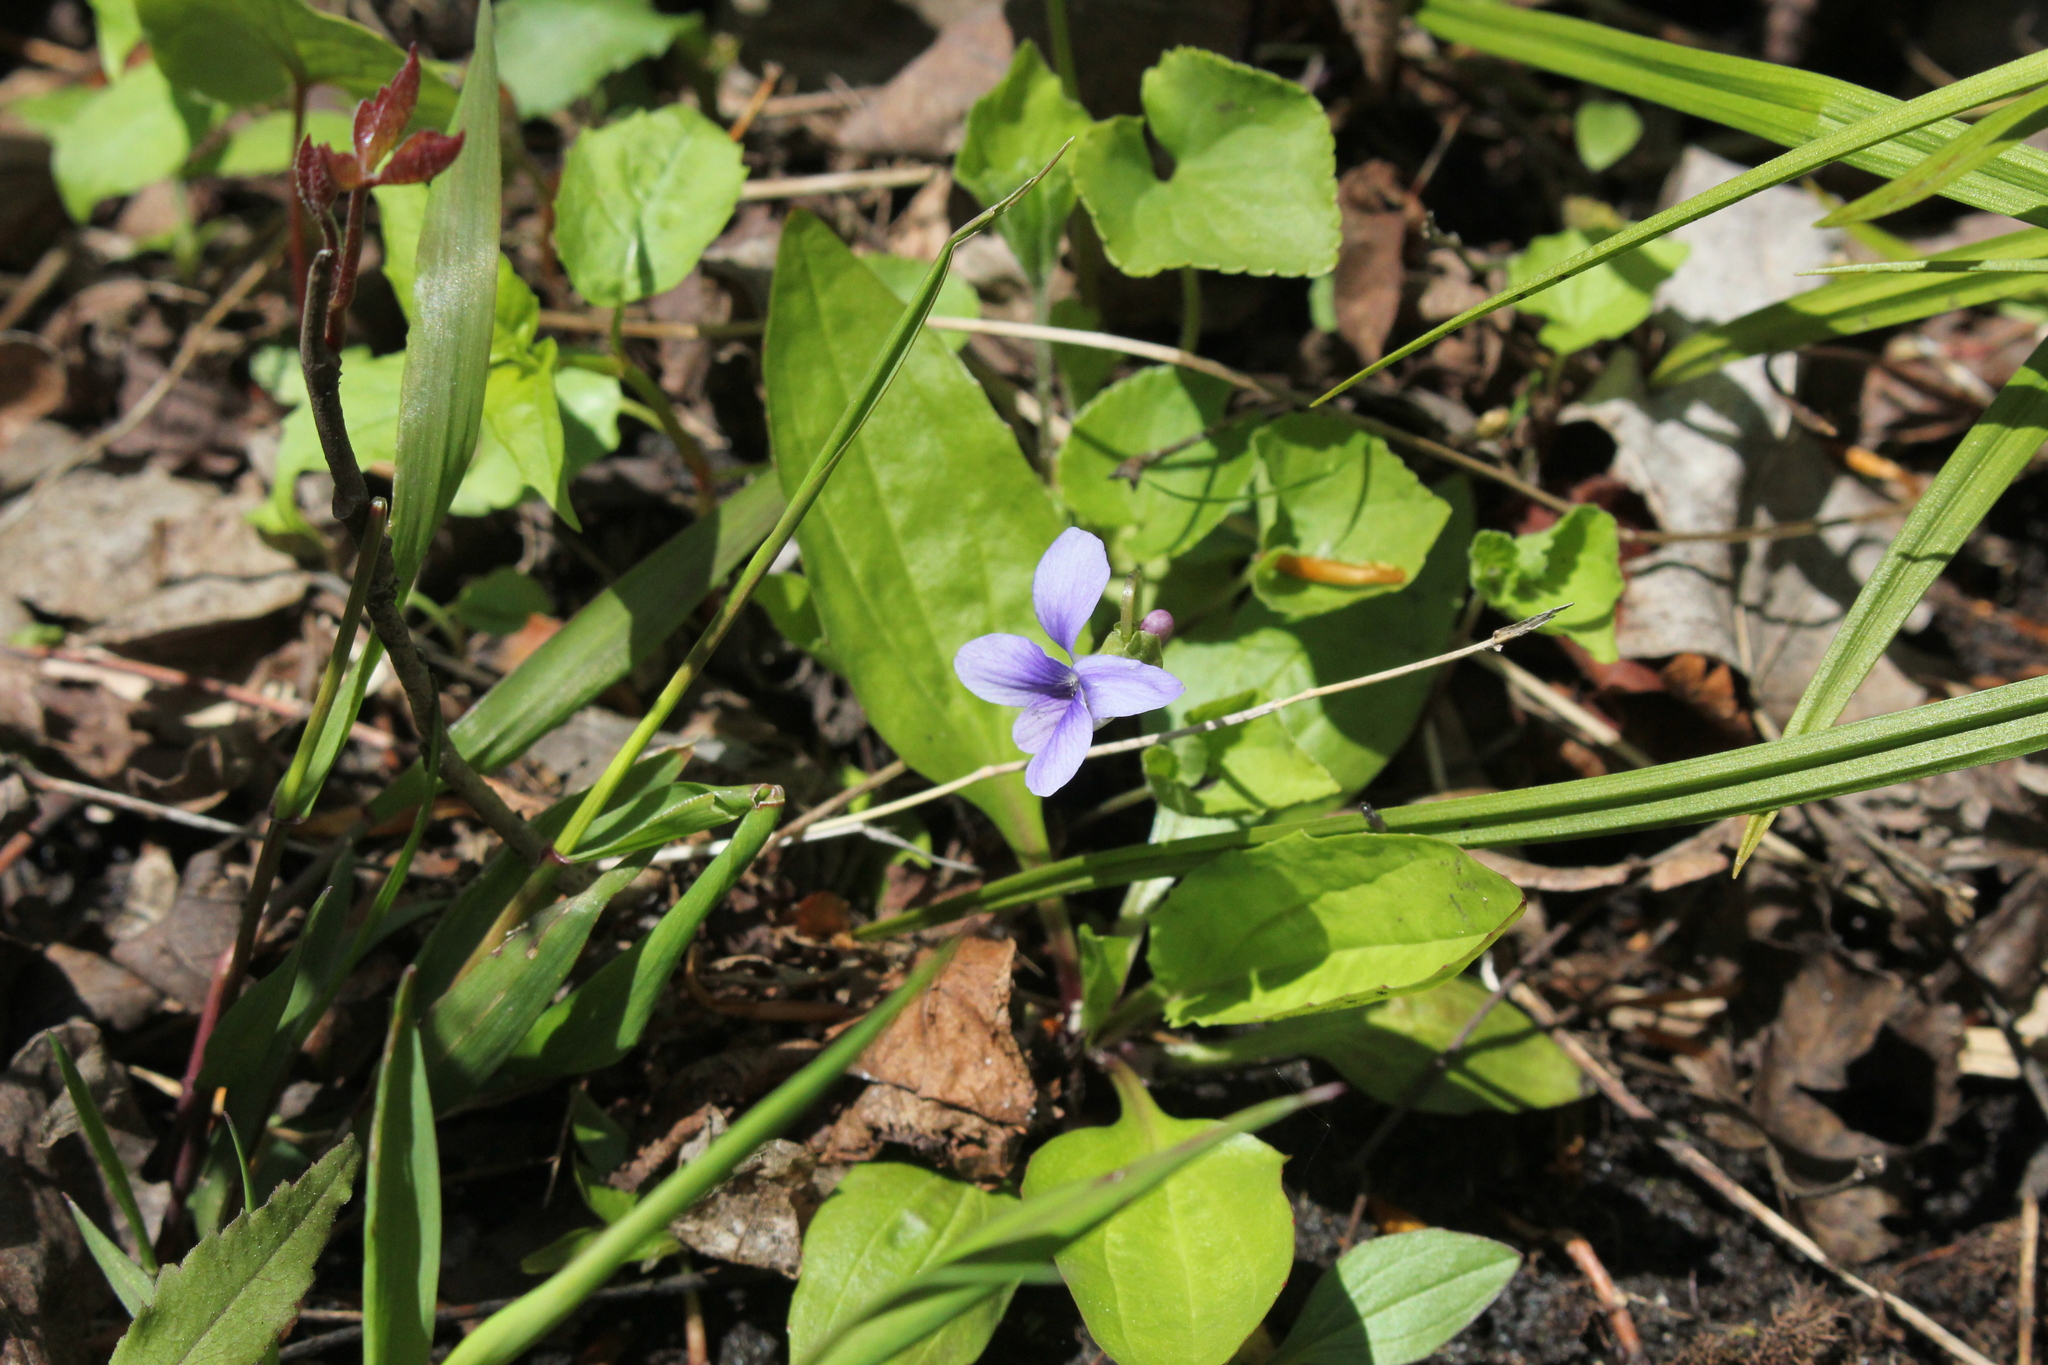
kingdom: Plantae
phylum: Tracheophyta
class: Magnoliopsida
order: Malpighiales
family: Violaceae
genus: Viola
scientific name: Viola labradorica
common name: Labrador violet
